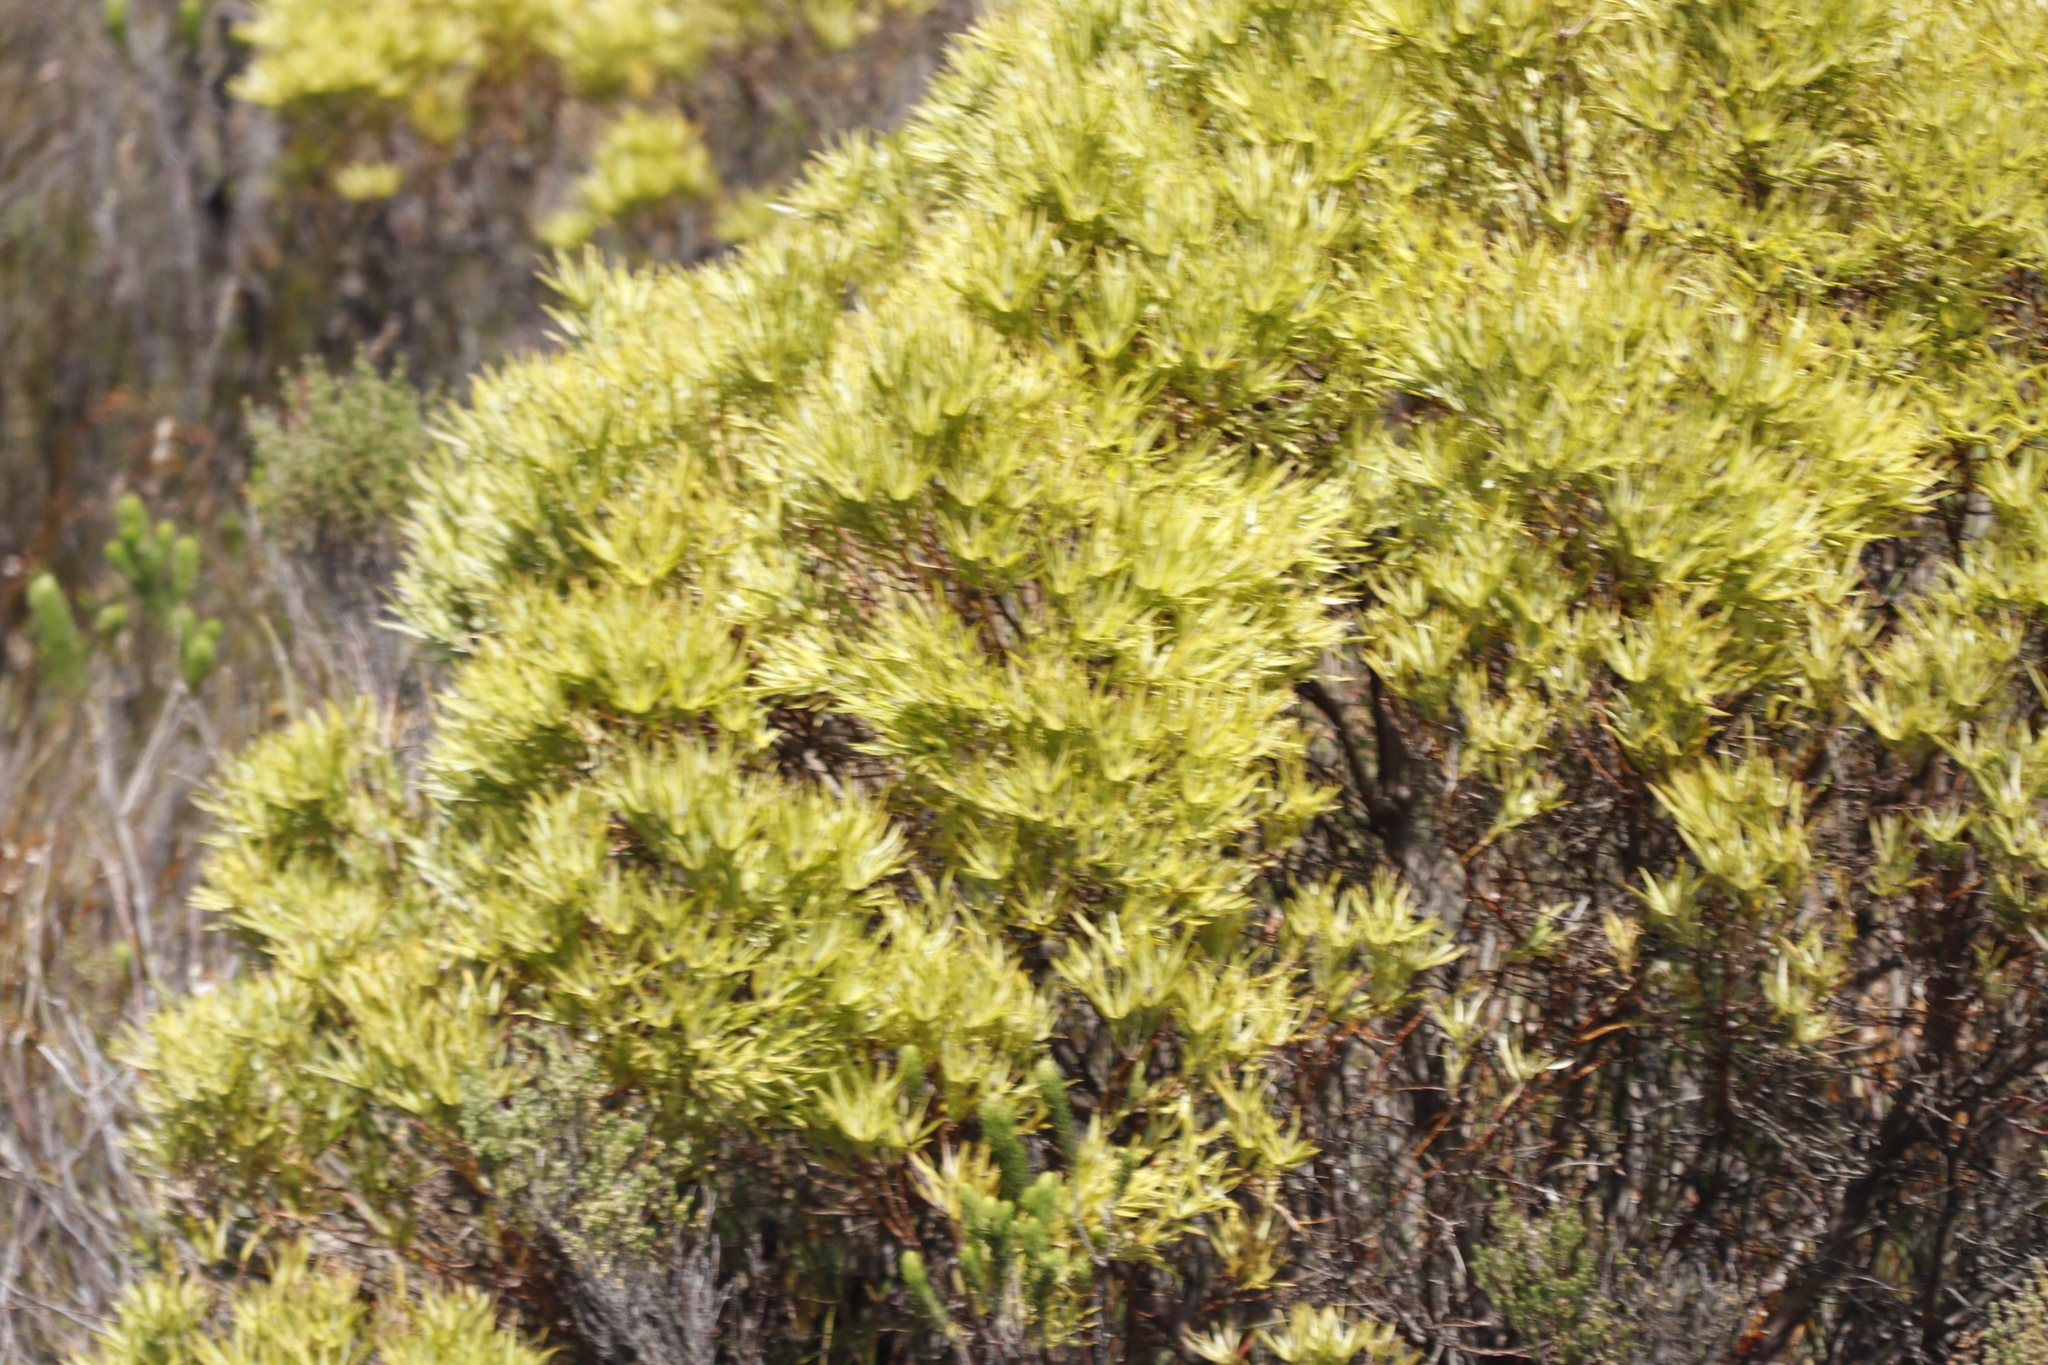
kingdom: Plantae
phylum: Tracheophyta
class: Magnoliopsida
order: Proteales
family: Proteaceae
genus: Leucadendron
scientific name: Leucadendron xanthoconus
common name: Sickle-leaf conebush
